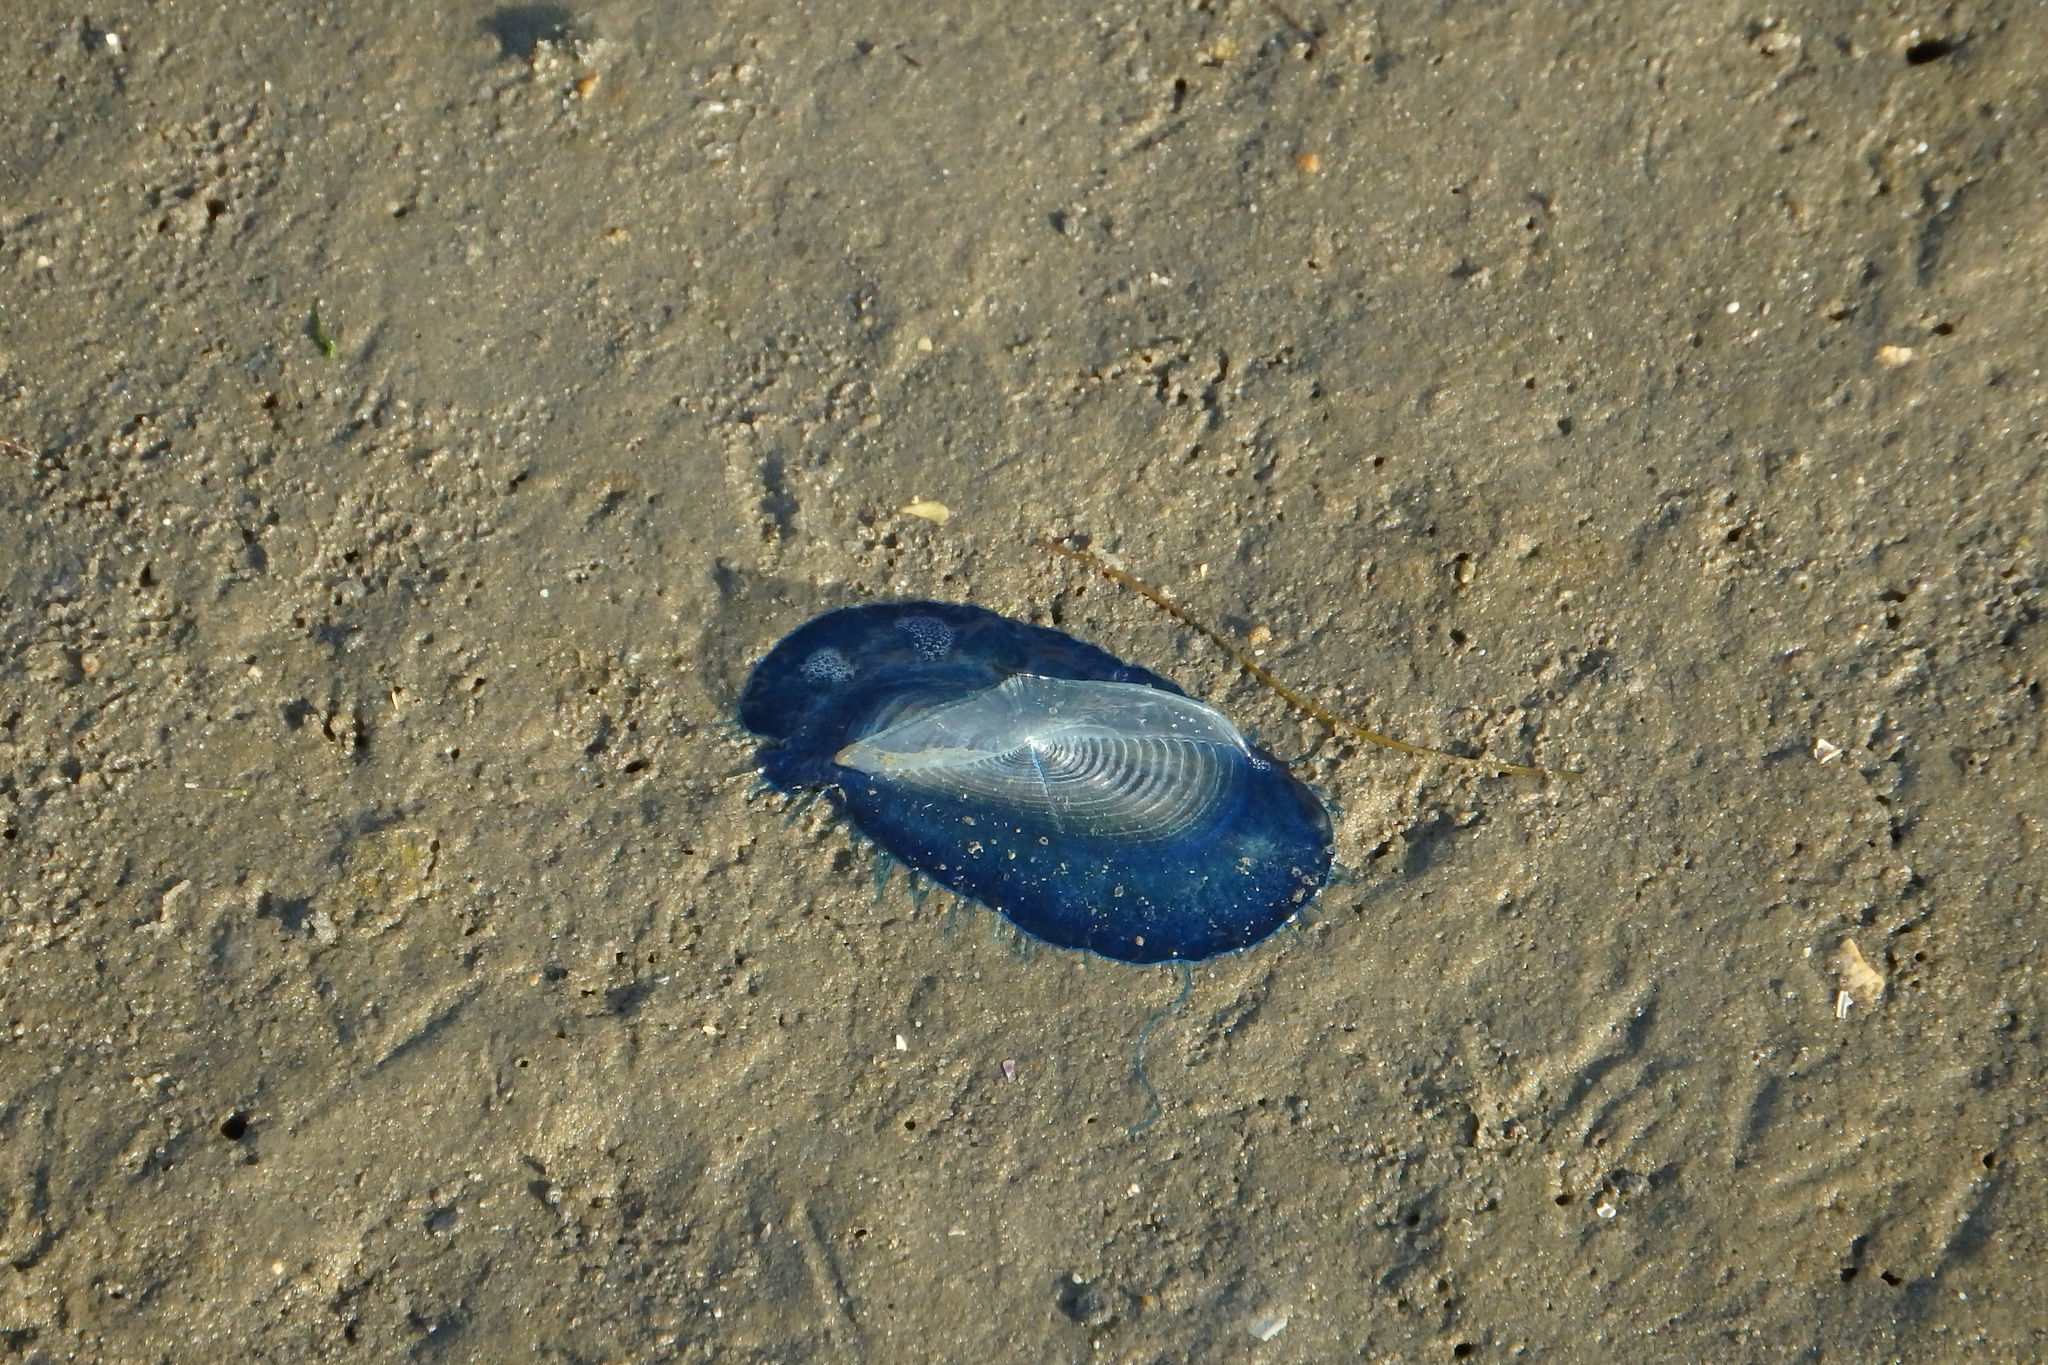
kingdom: Animalia
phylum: Cnidaria
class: Hydrozoa
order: Anthoathecata
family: Porpitidae
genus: Velella
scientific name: Velella velella
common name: By-the-wind-sailor
